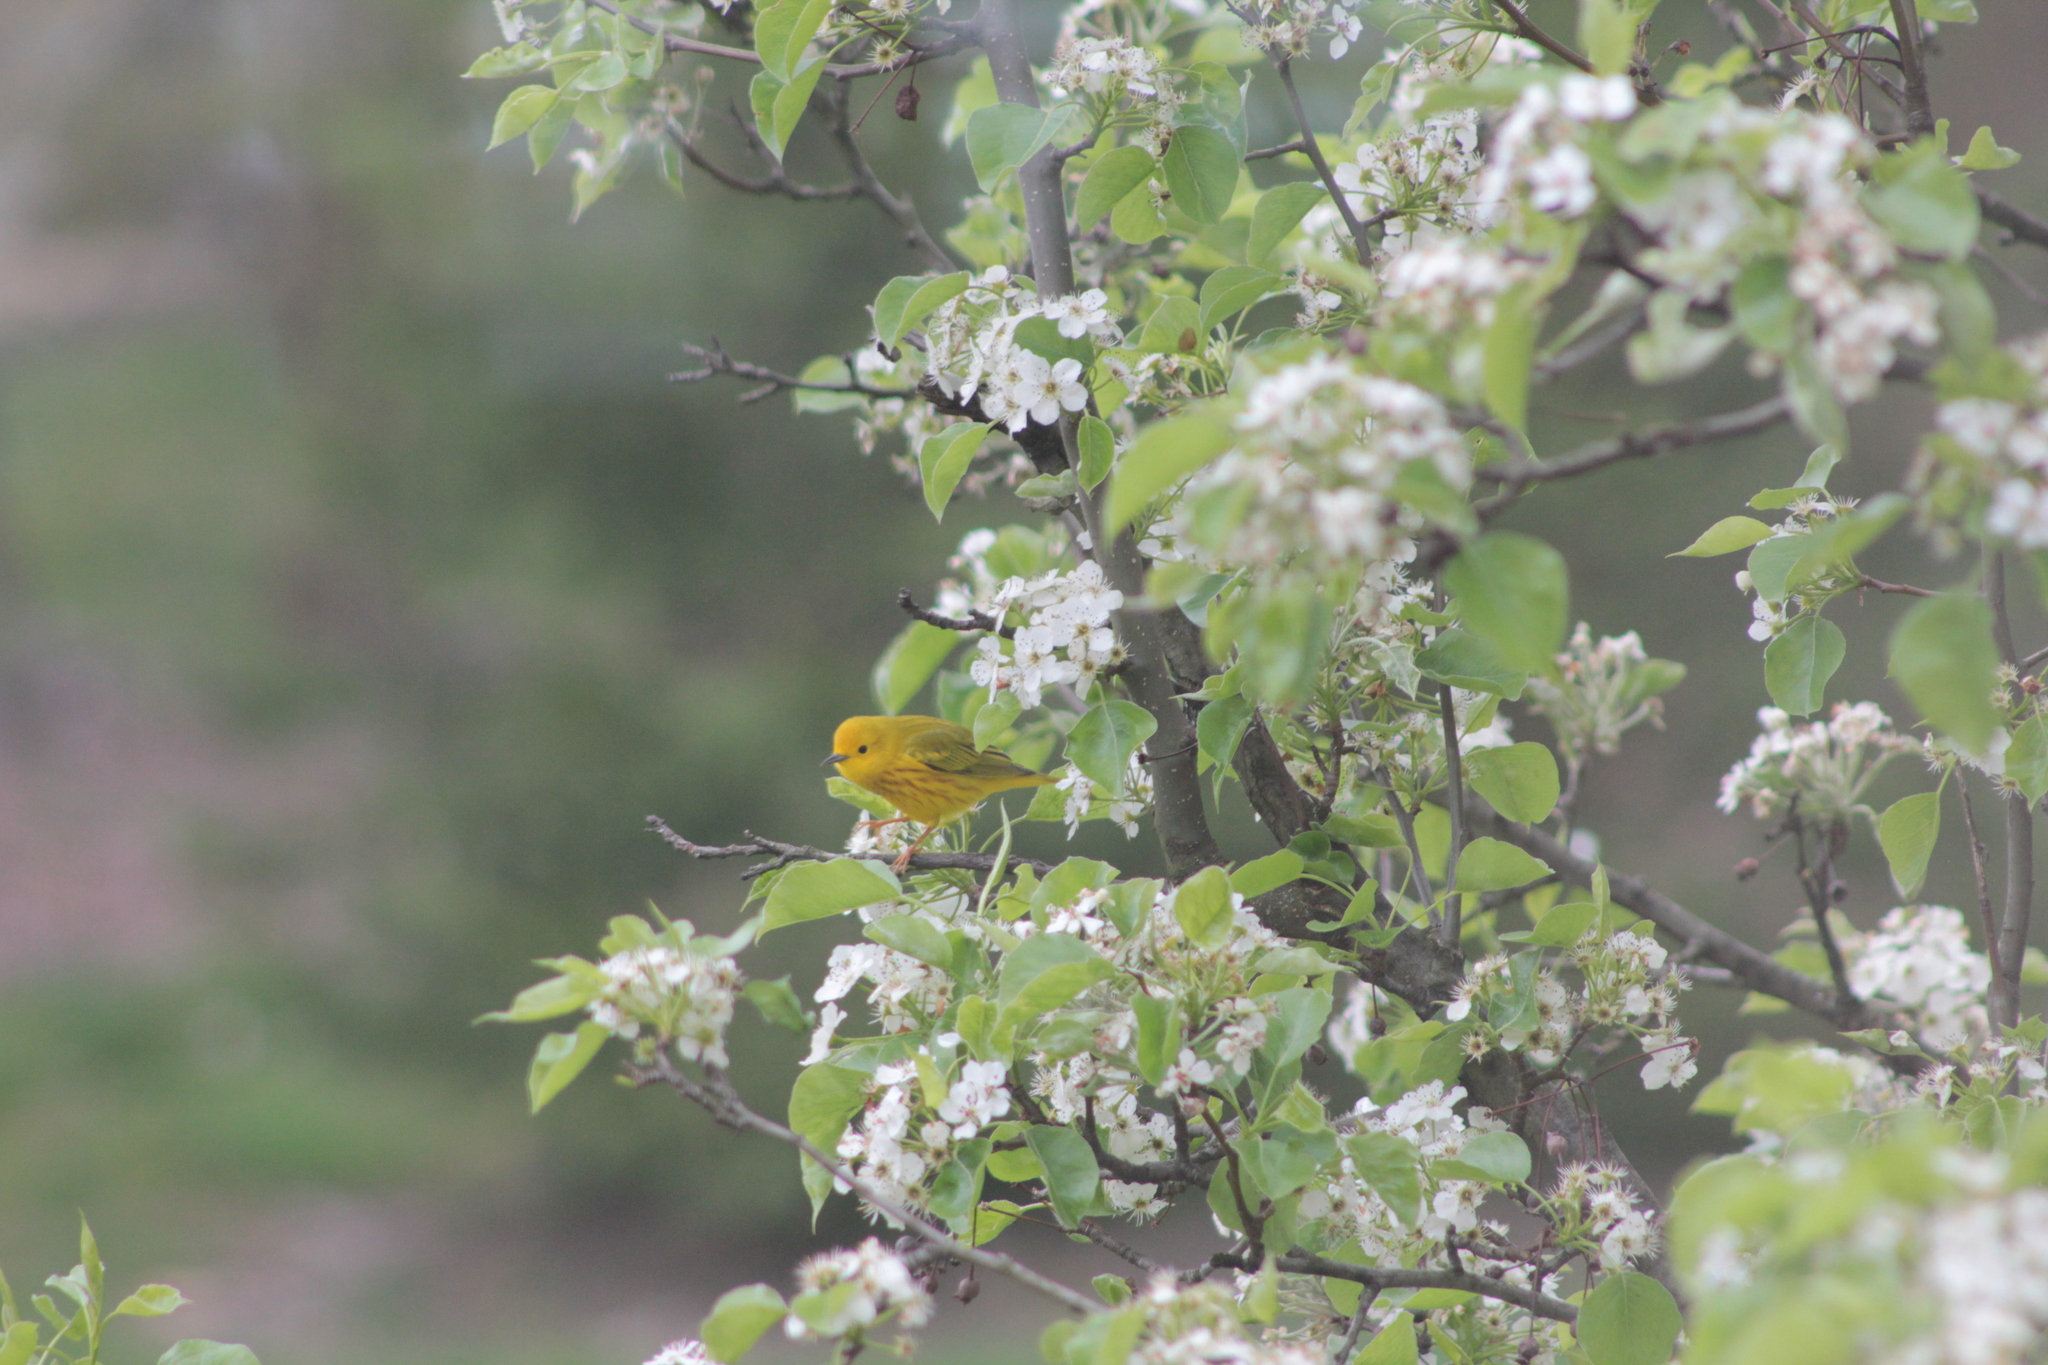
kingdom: Animalia
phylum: Chordata
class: Aves
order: Passeriformes
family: Parulidae
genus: Setophaga
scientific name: Setophaga petechia
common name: Yellow warbler
